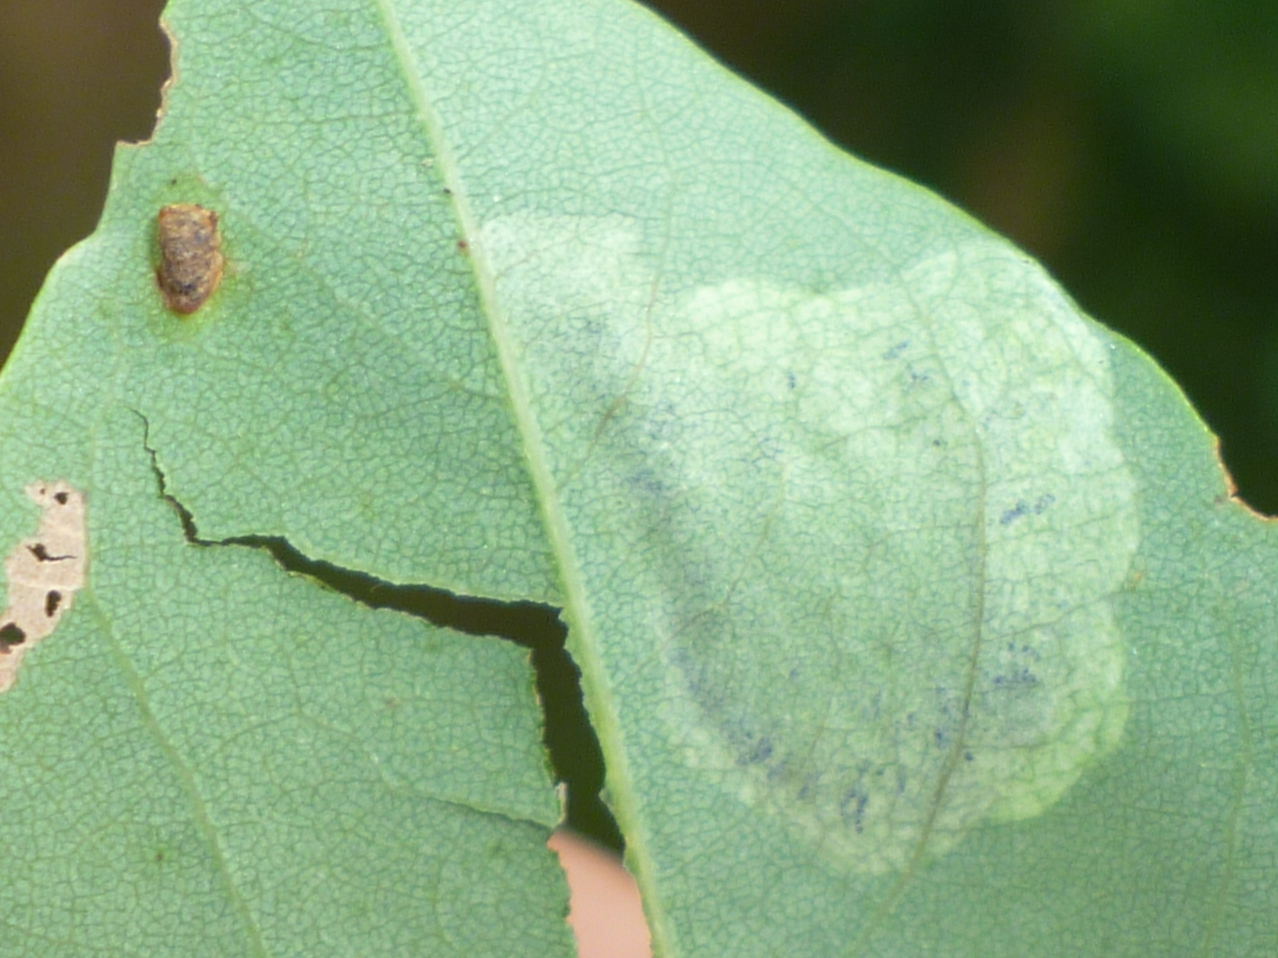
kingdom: Animalia
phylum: Arthropoda
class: Insecta
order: Coleoptera
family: Chrysomelidae
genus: Odontota
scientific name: Odontota dorsalis
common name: Locust leaf-miner beetle
